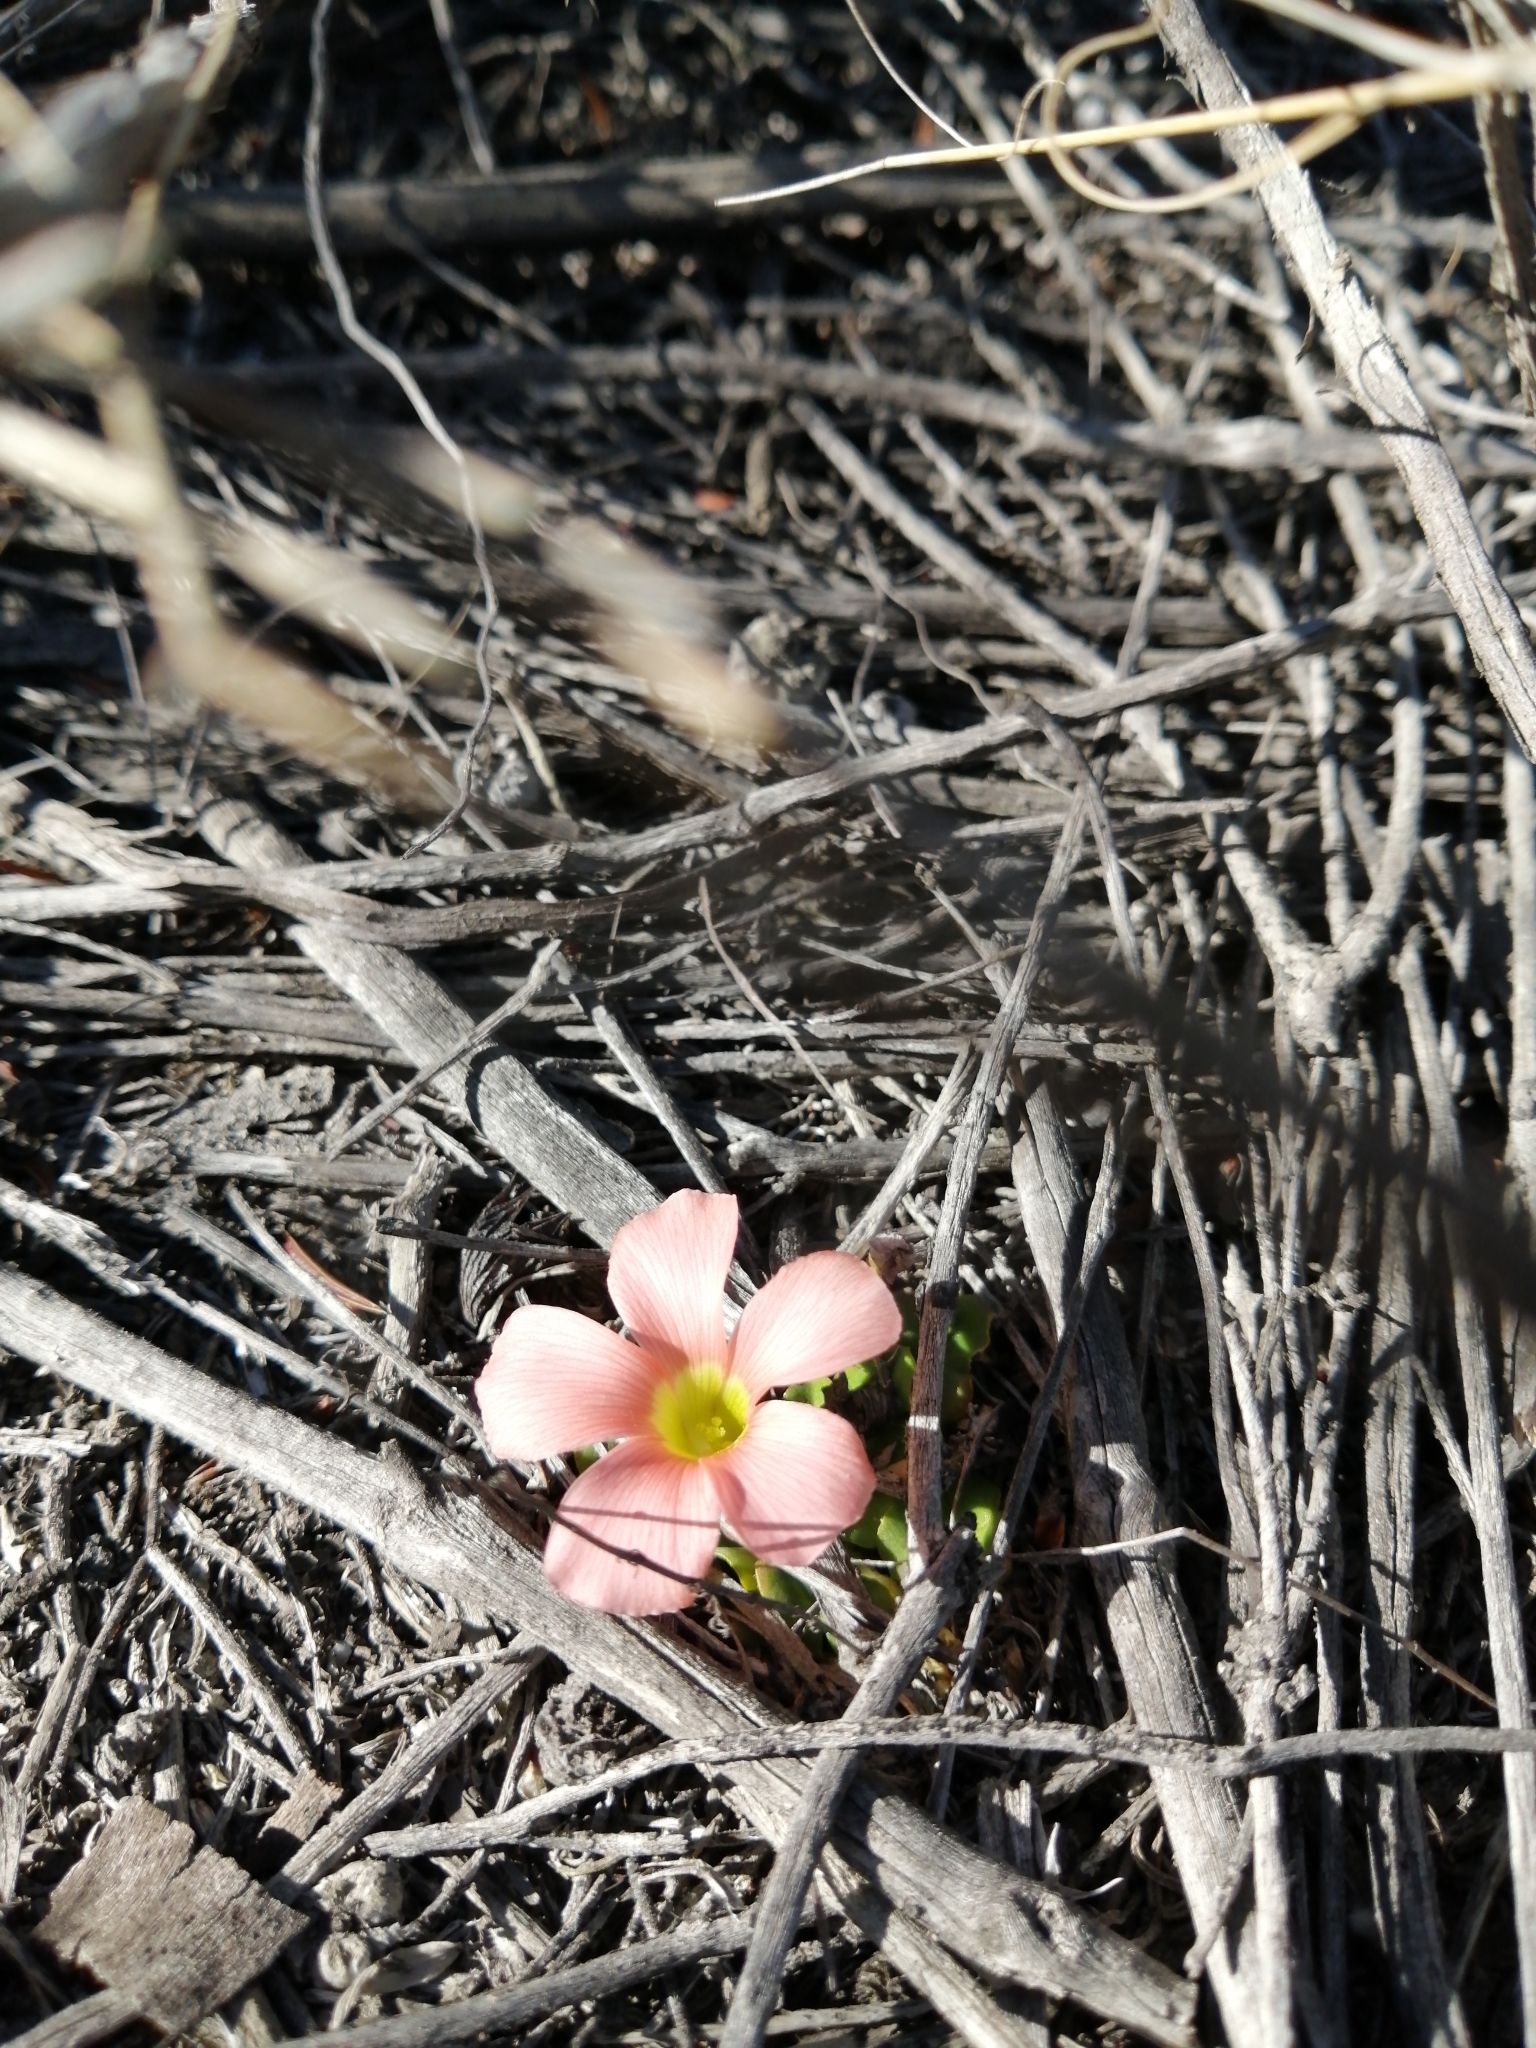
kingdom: Plantae
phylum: Tracheophyta
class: Magnoliopsida
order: Oxalidales
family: Oxalidaceae
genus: Oxalis
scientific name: Oxalis pulchella
